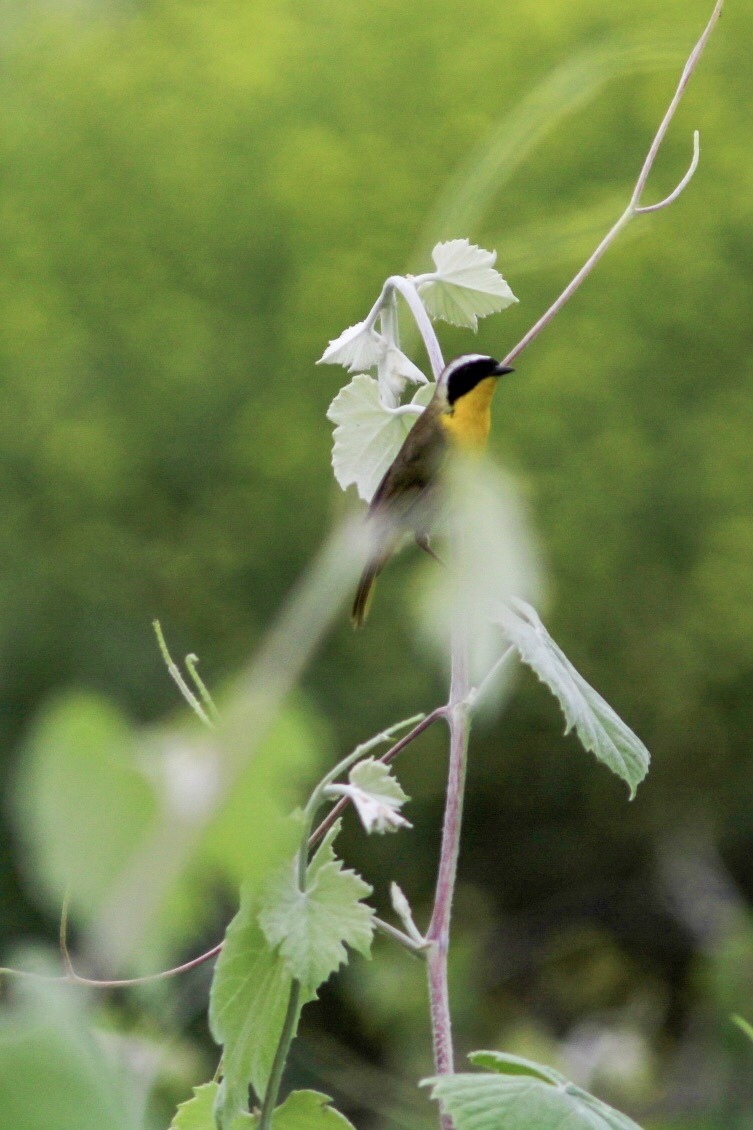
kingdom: Animalia
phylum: Chordata
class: Aves
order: Passeriformes
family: Parulidae
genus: Geothlypis
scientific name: Geothlypis trichas
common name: Common yellowthroat
